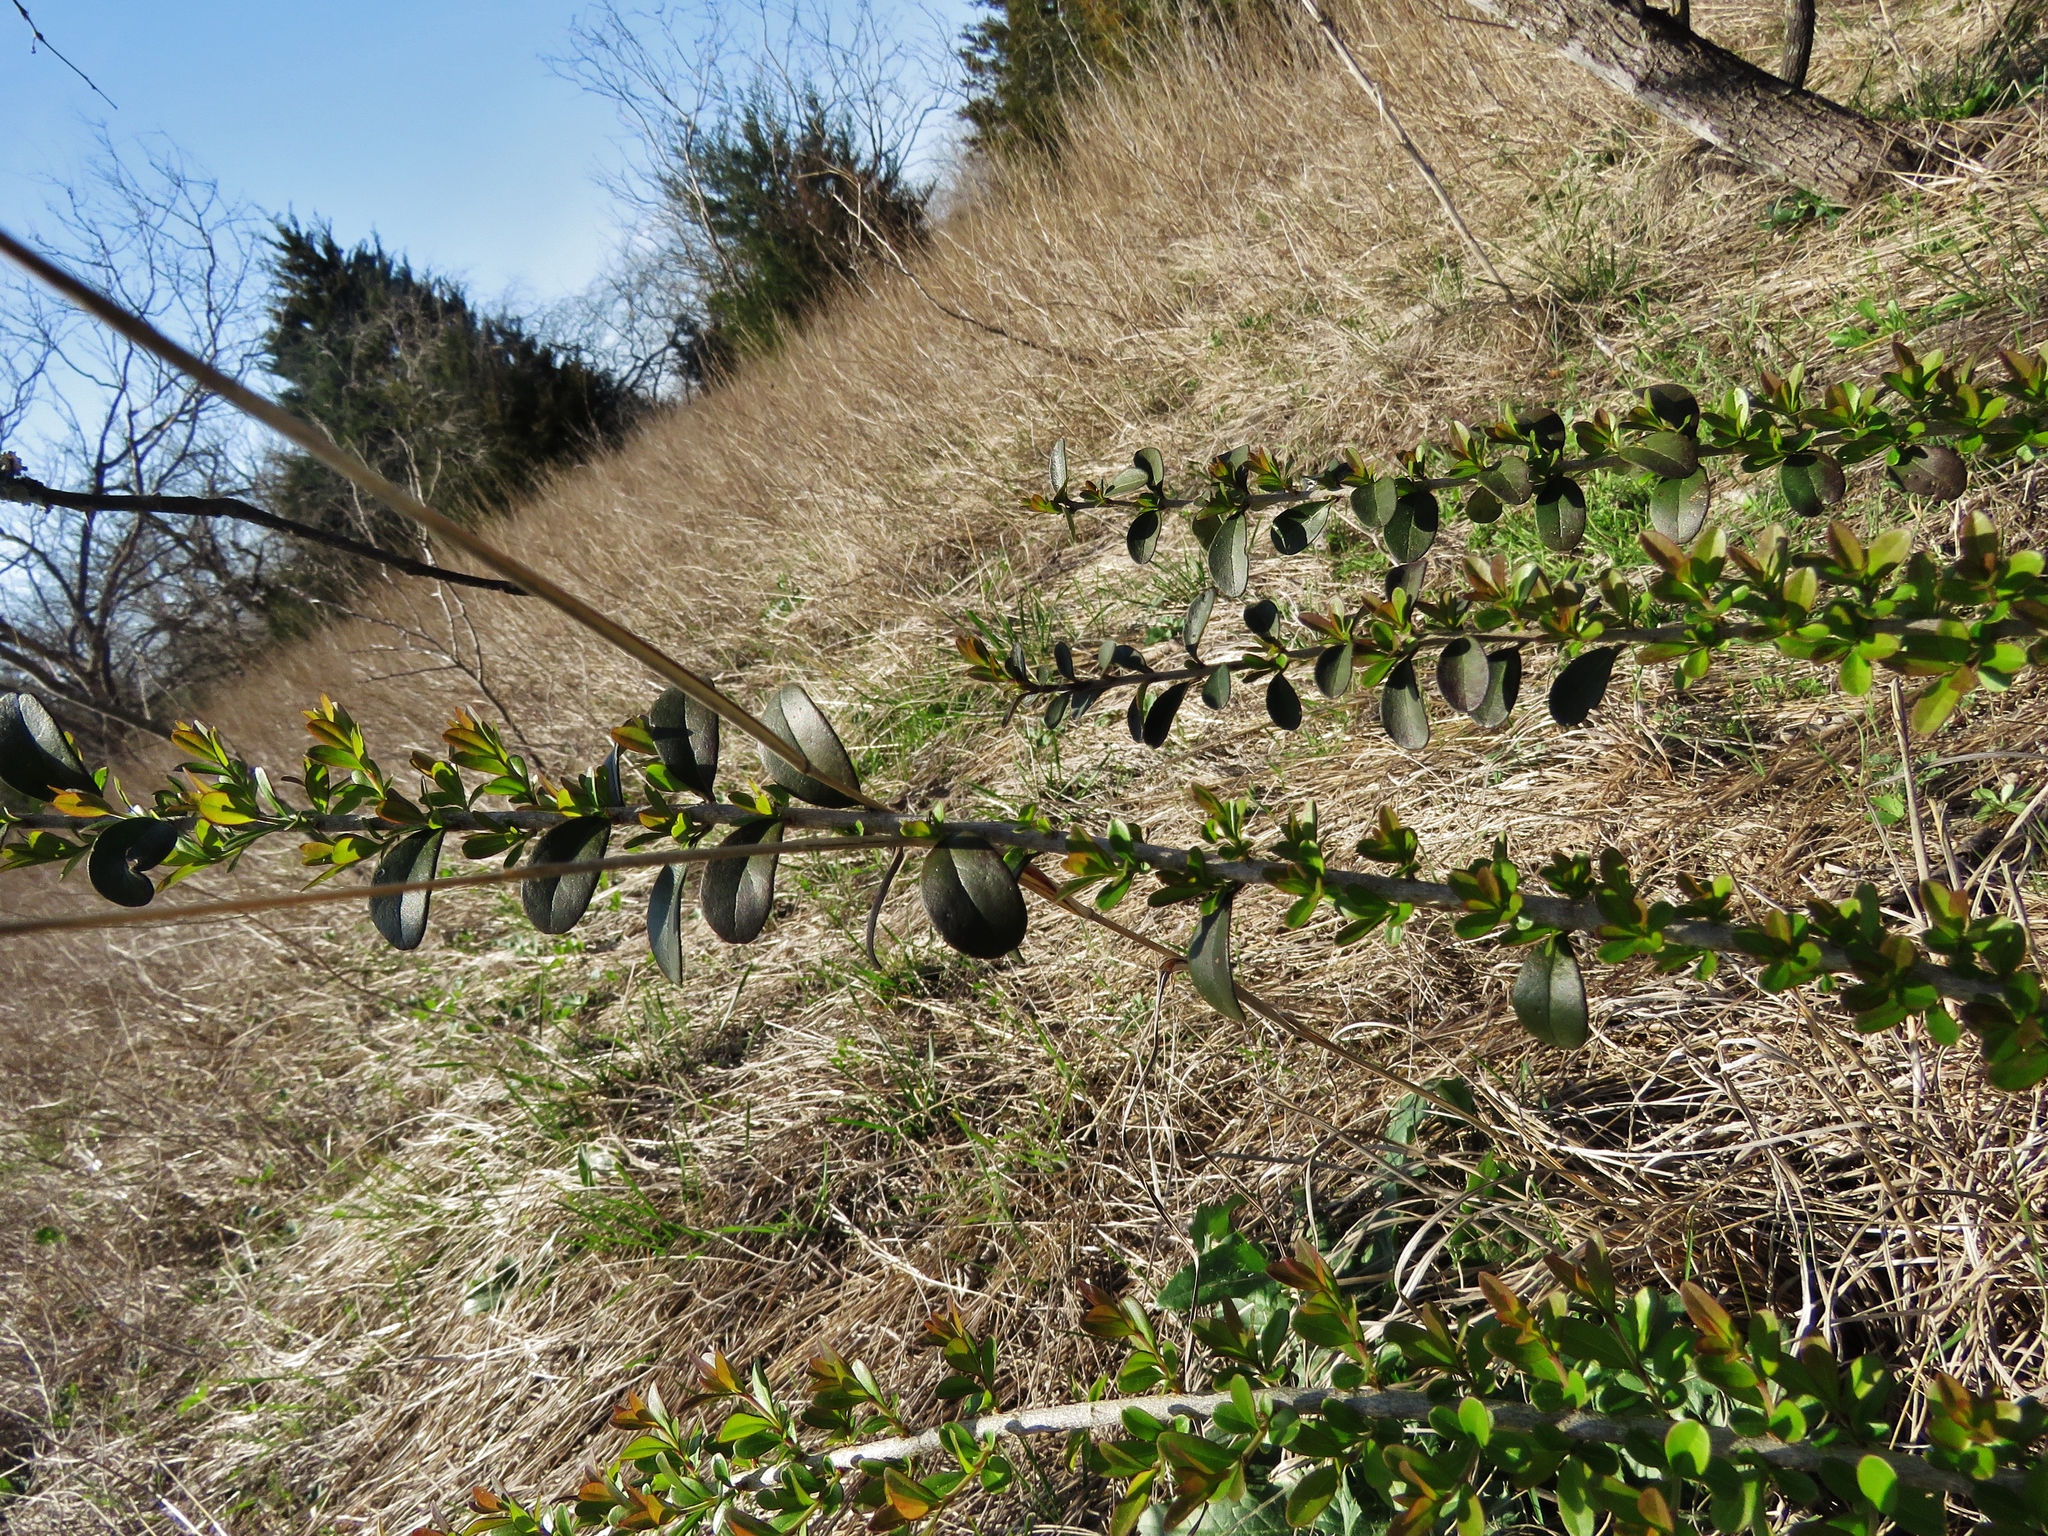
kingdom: Plantae
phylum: Tracheophyta
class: Magnoliopsida
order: Lamiales
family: Oleaceae
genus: Ligustrum
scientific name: Ligustrum quihoui
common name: Waxyleaf privet
